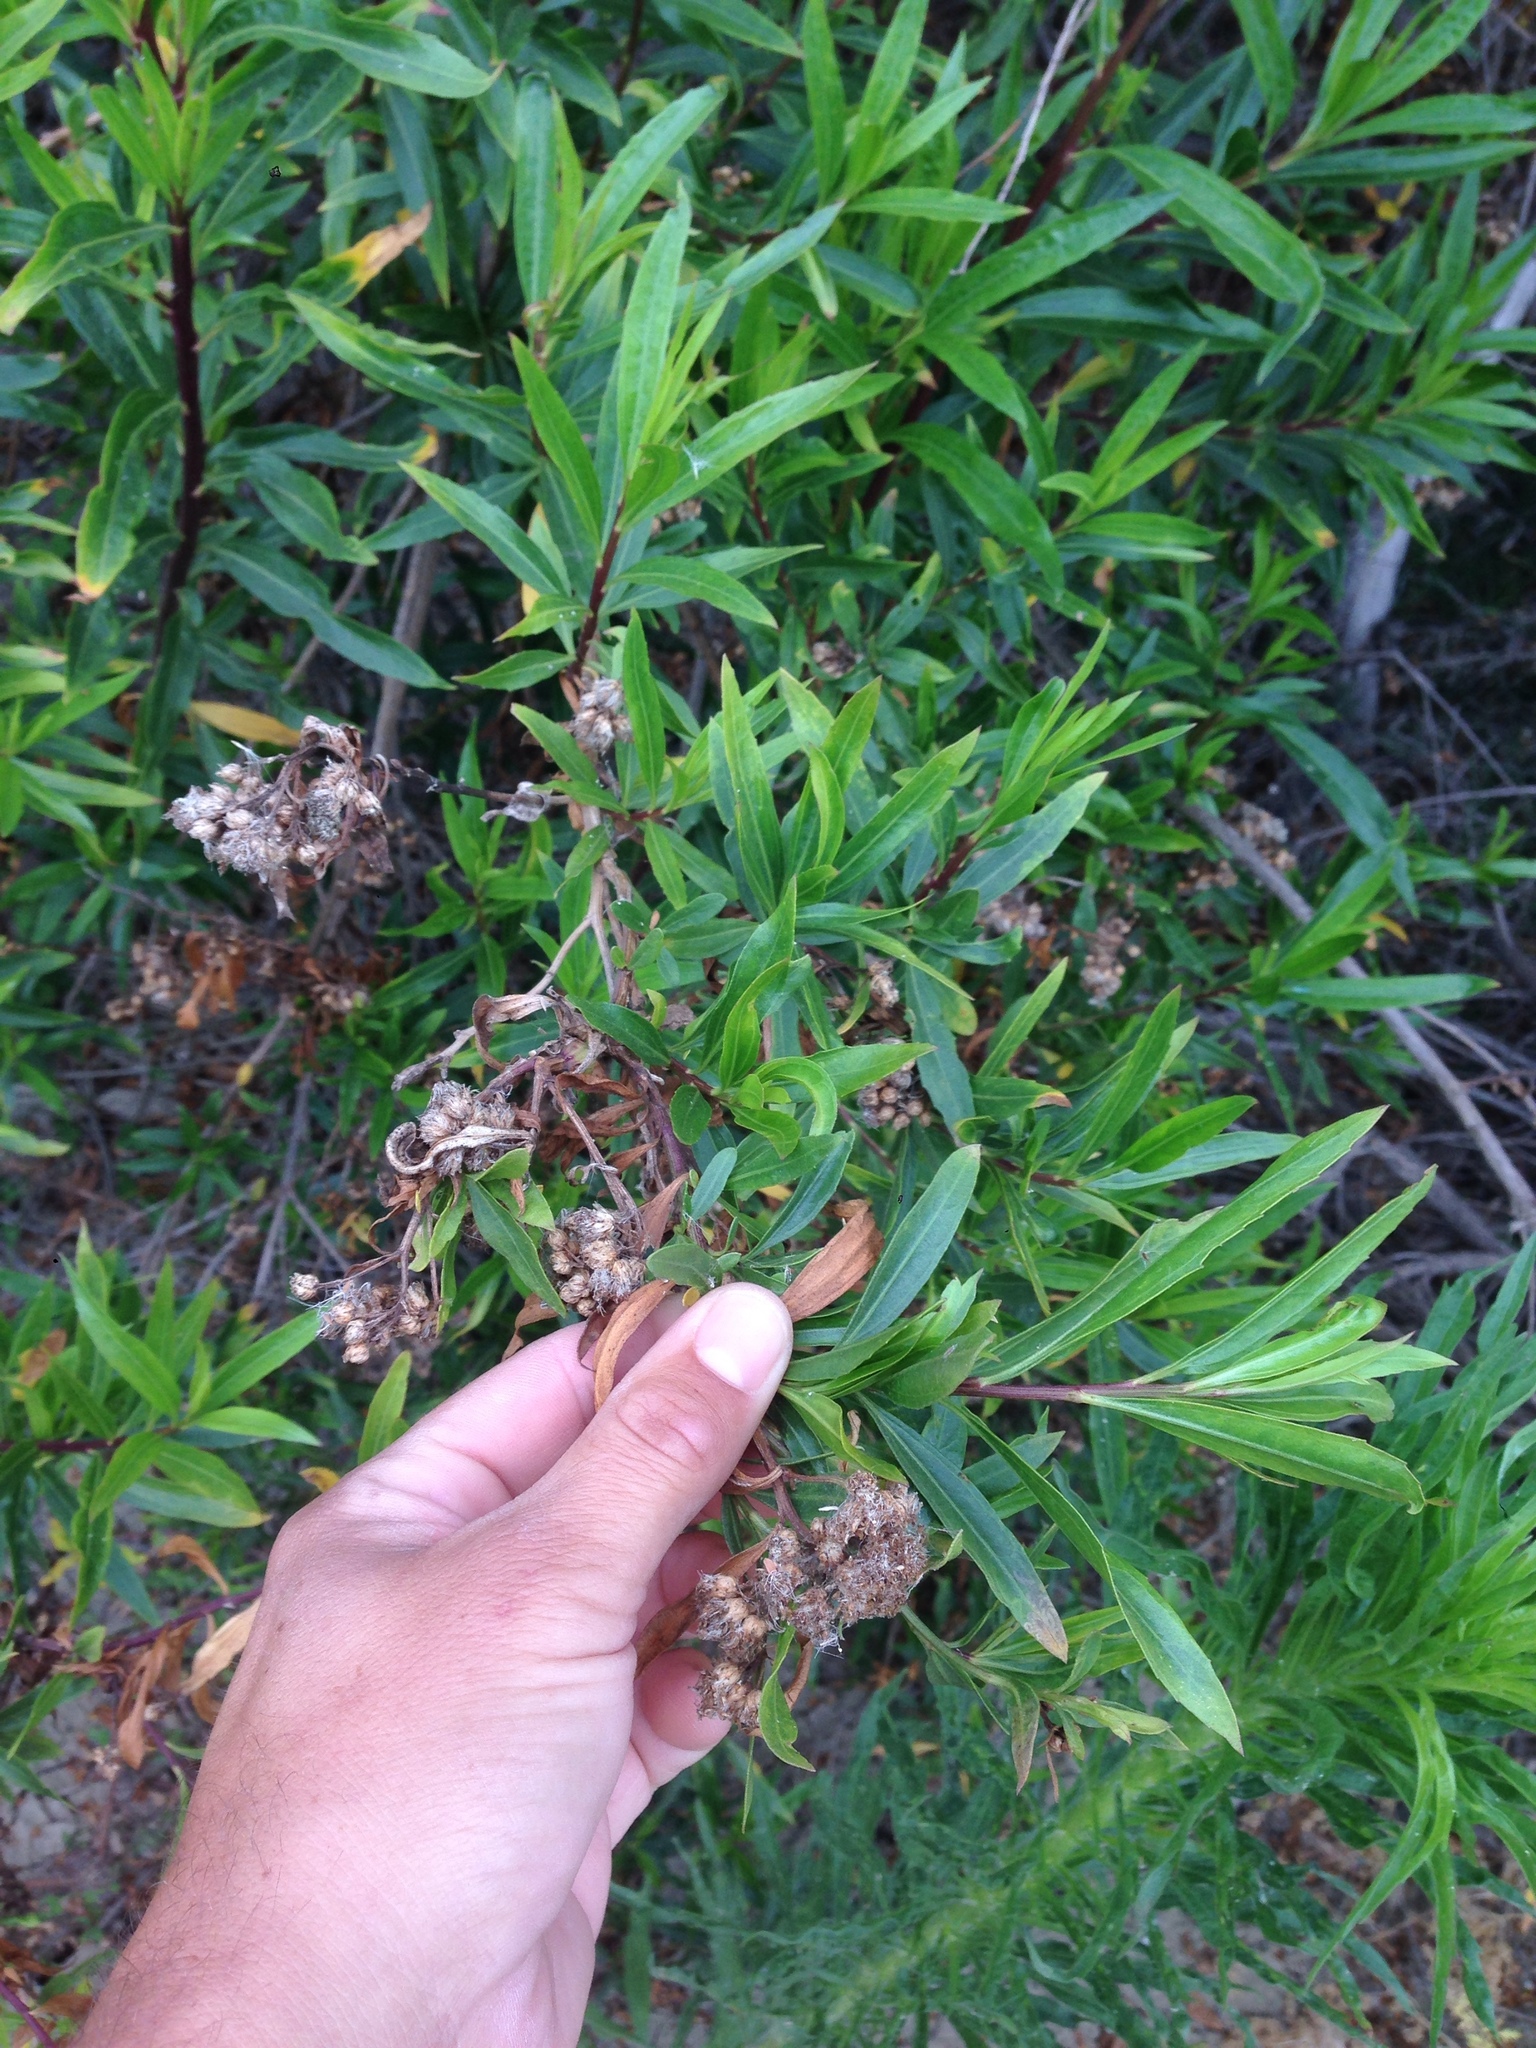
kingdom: Plantae
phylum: Tracheophyta
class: Magnoliopsida
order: Asterales
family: Asteraceae
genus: Baccharis
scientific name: Baccharis salicifolia
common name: Sticky baccharis
